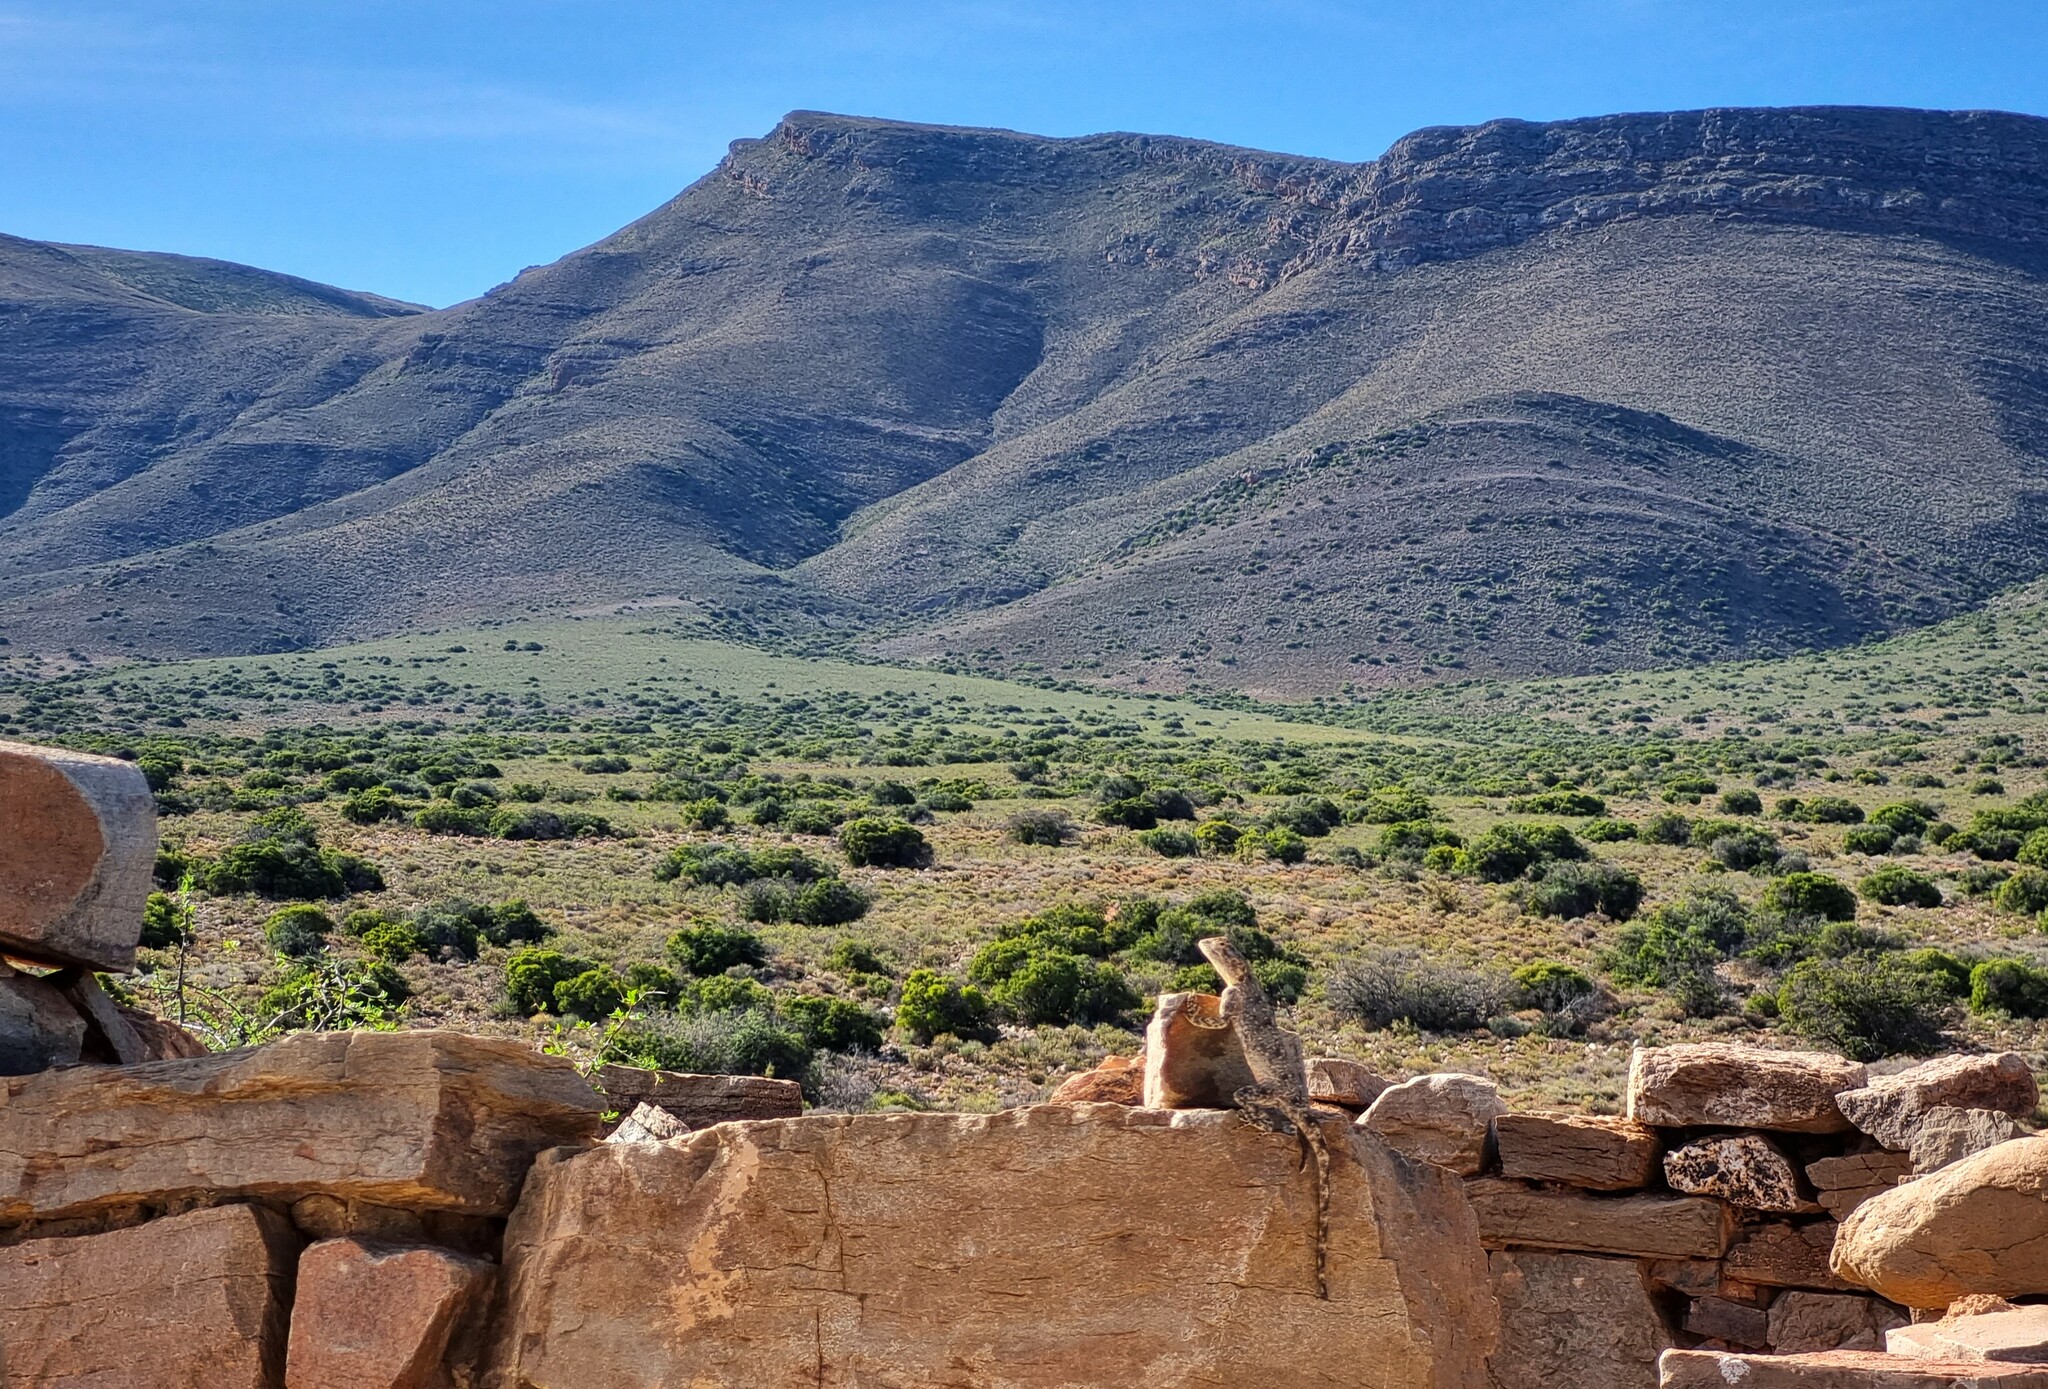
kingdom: Animalia
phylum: Chordata
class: Squamata
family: Agamidae
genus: Agama
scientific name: Agama atra
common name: Southern african rock agama
